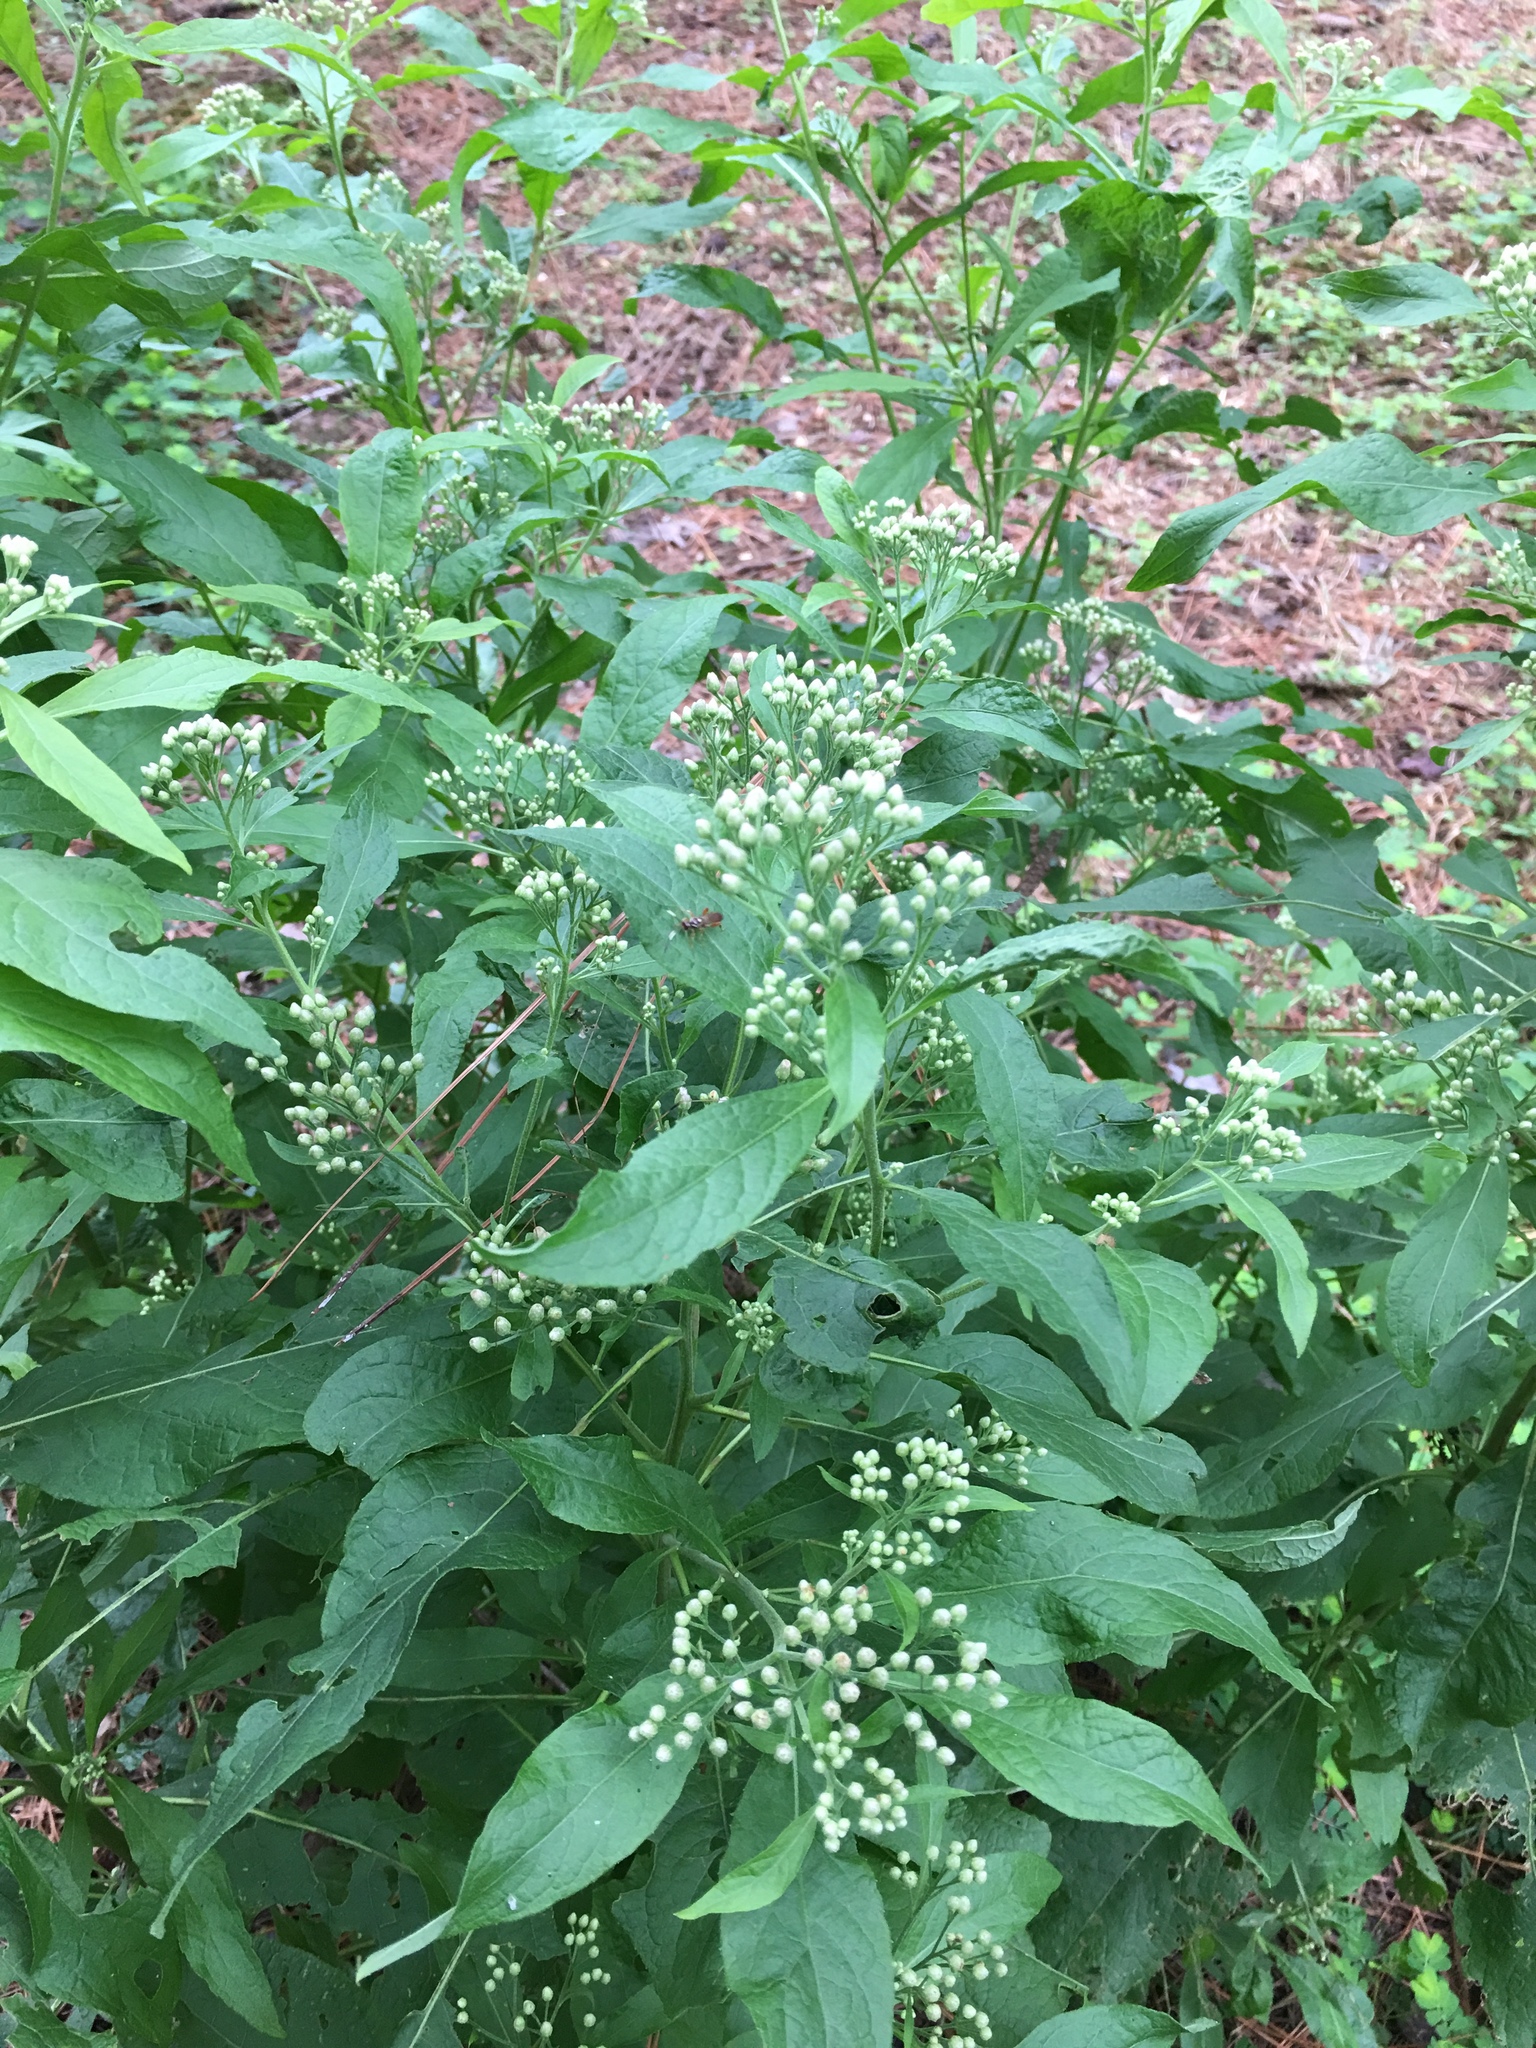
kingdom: Plantae
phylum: Tracheophyta
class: Magnoliopsida
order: Asterales
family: Asteraceae
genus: Pluchea
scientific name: Pluchea camphorata
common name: Camphor pluchea
